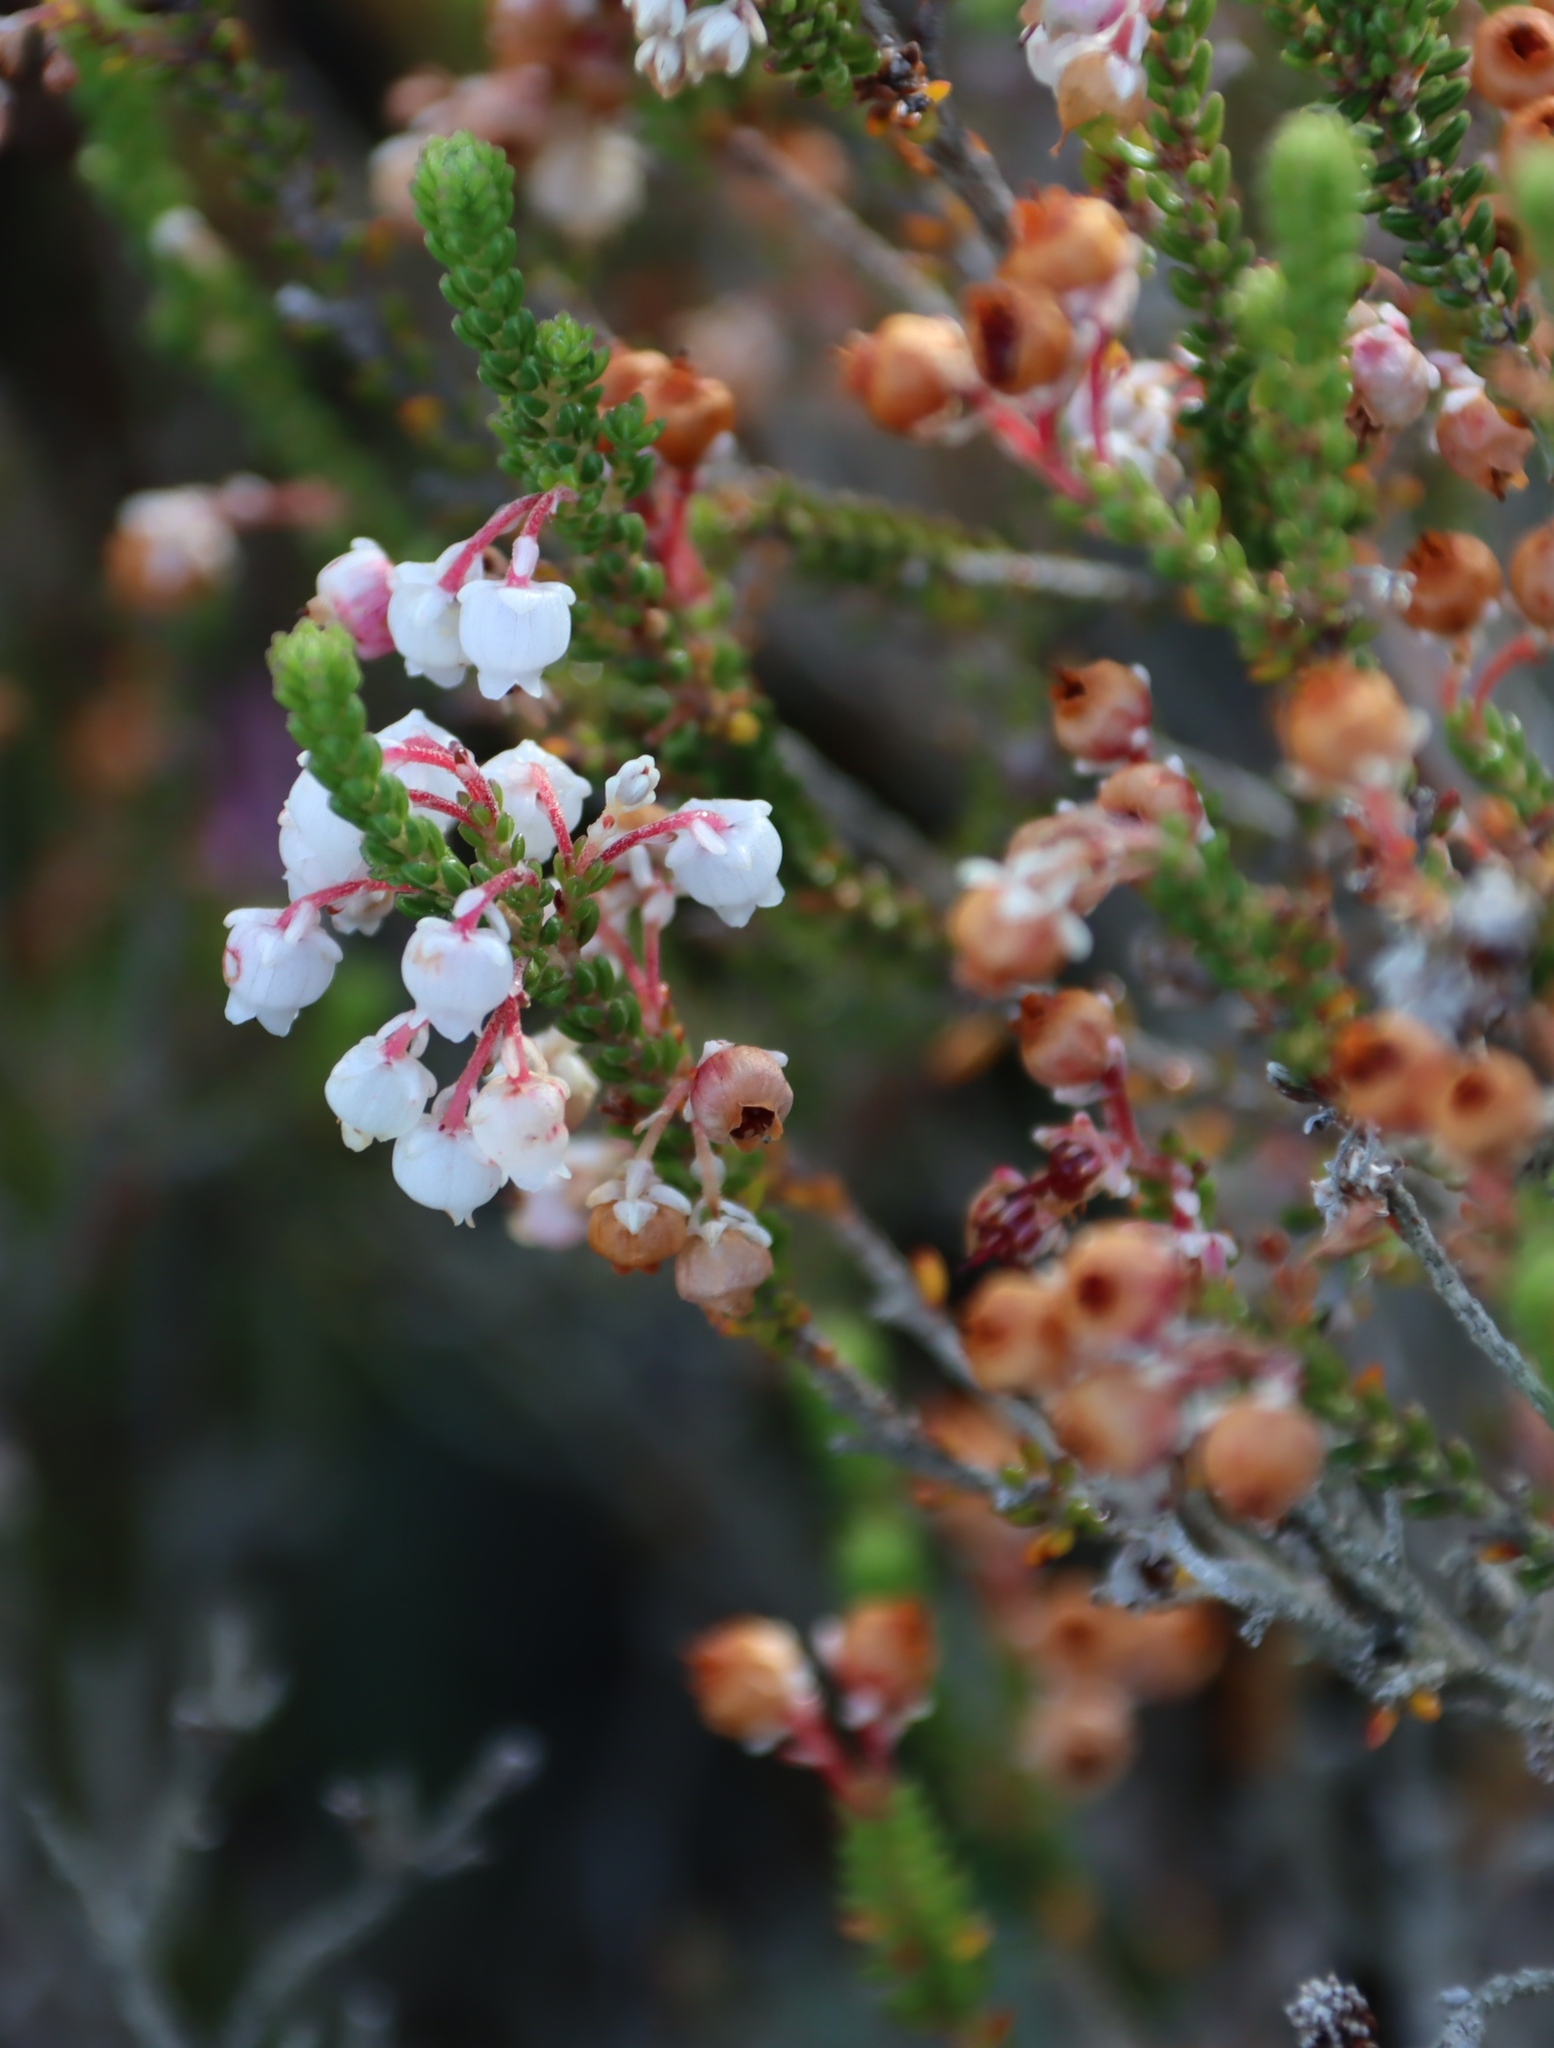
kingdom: Plantae
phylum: Tracheophyta
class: Magnoliopsida
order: Ericales
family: Ericaceae
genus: Erica
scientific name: Erica spectabilis
